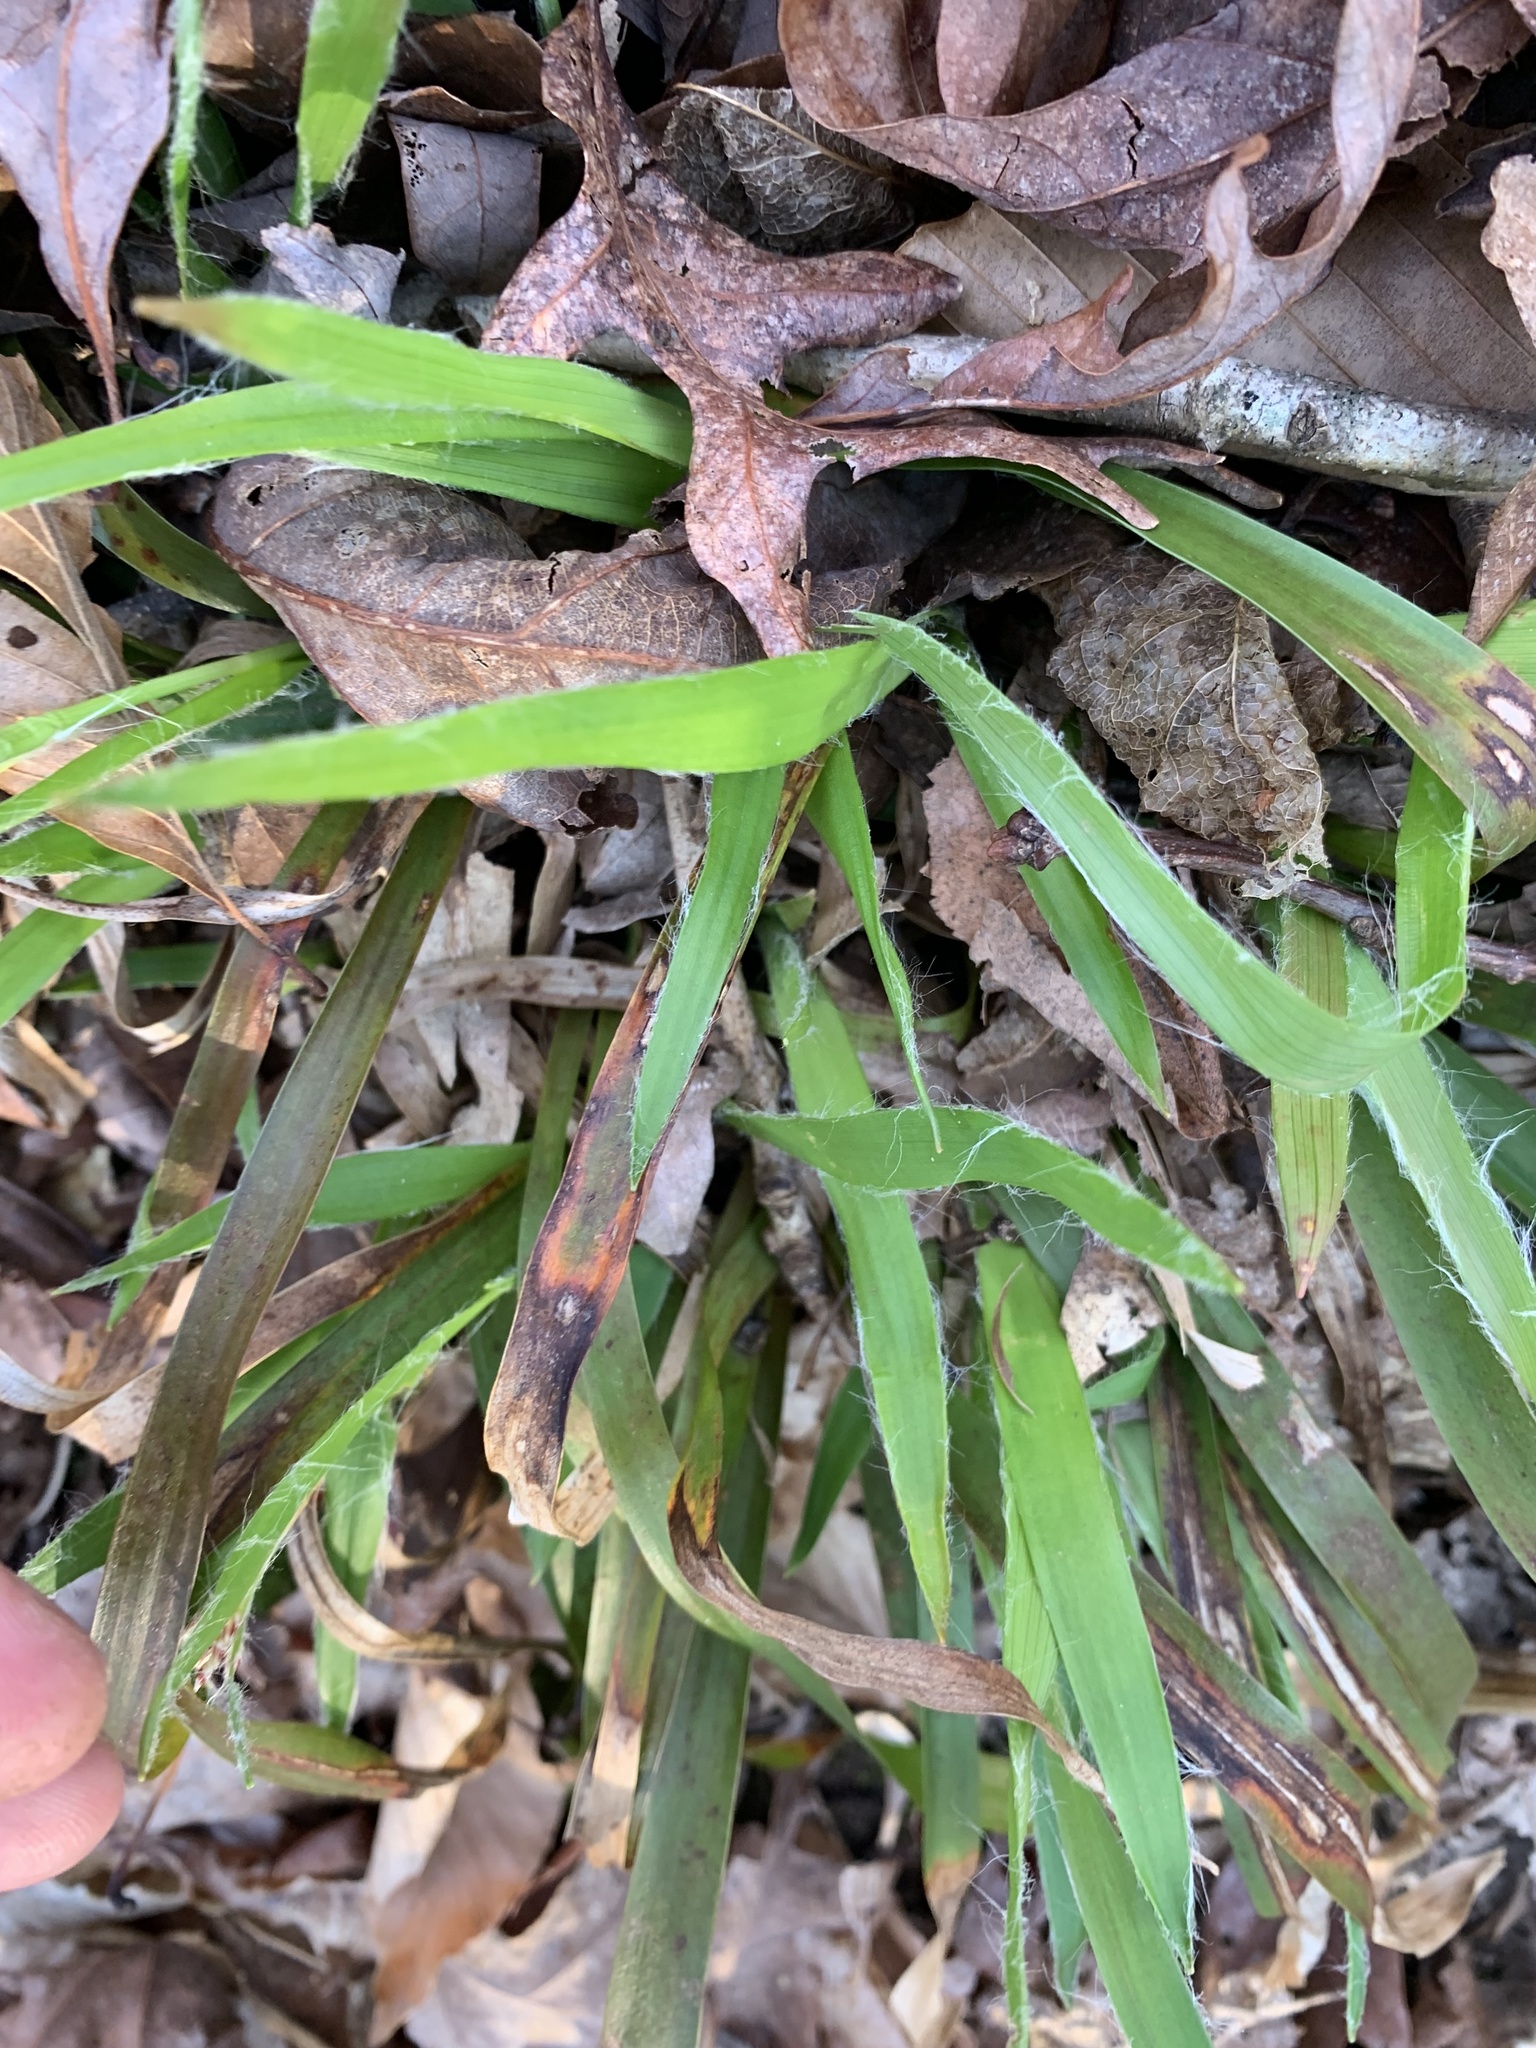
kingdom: Plantae
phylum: Tracheophyta
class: Liliopsida
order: Poales
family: Juncaceae
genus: Luzula
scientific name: Luzula acuminata
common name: Hairy woodrush
